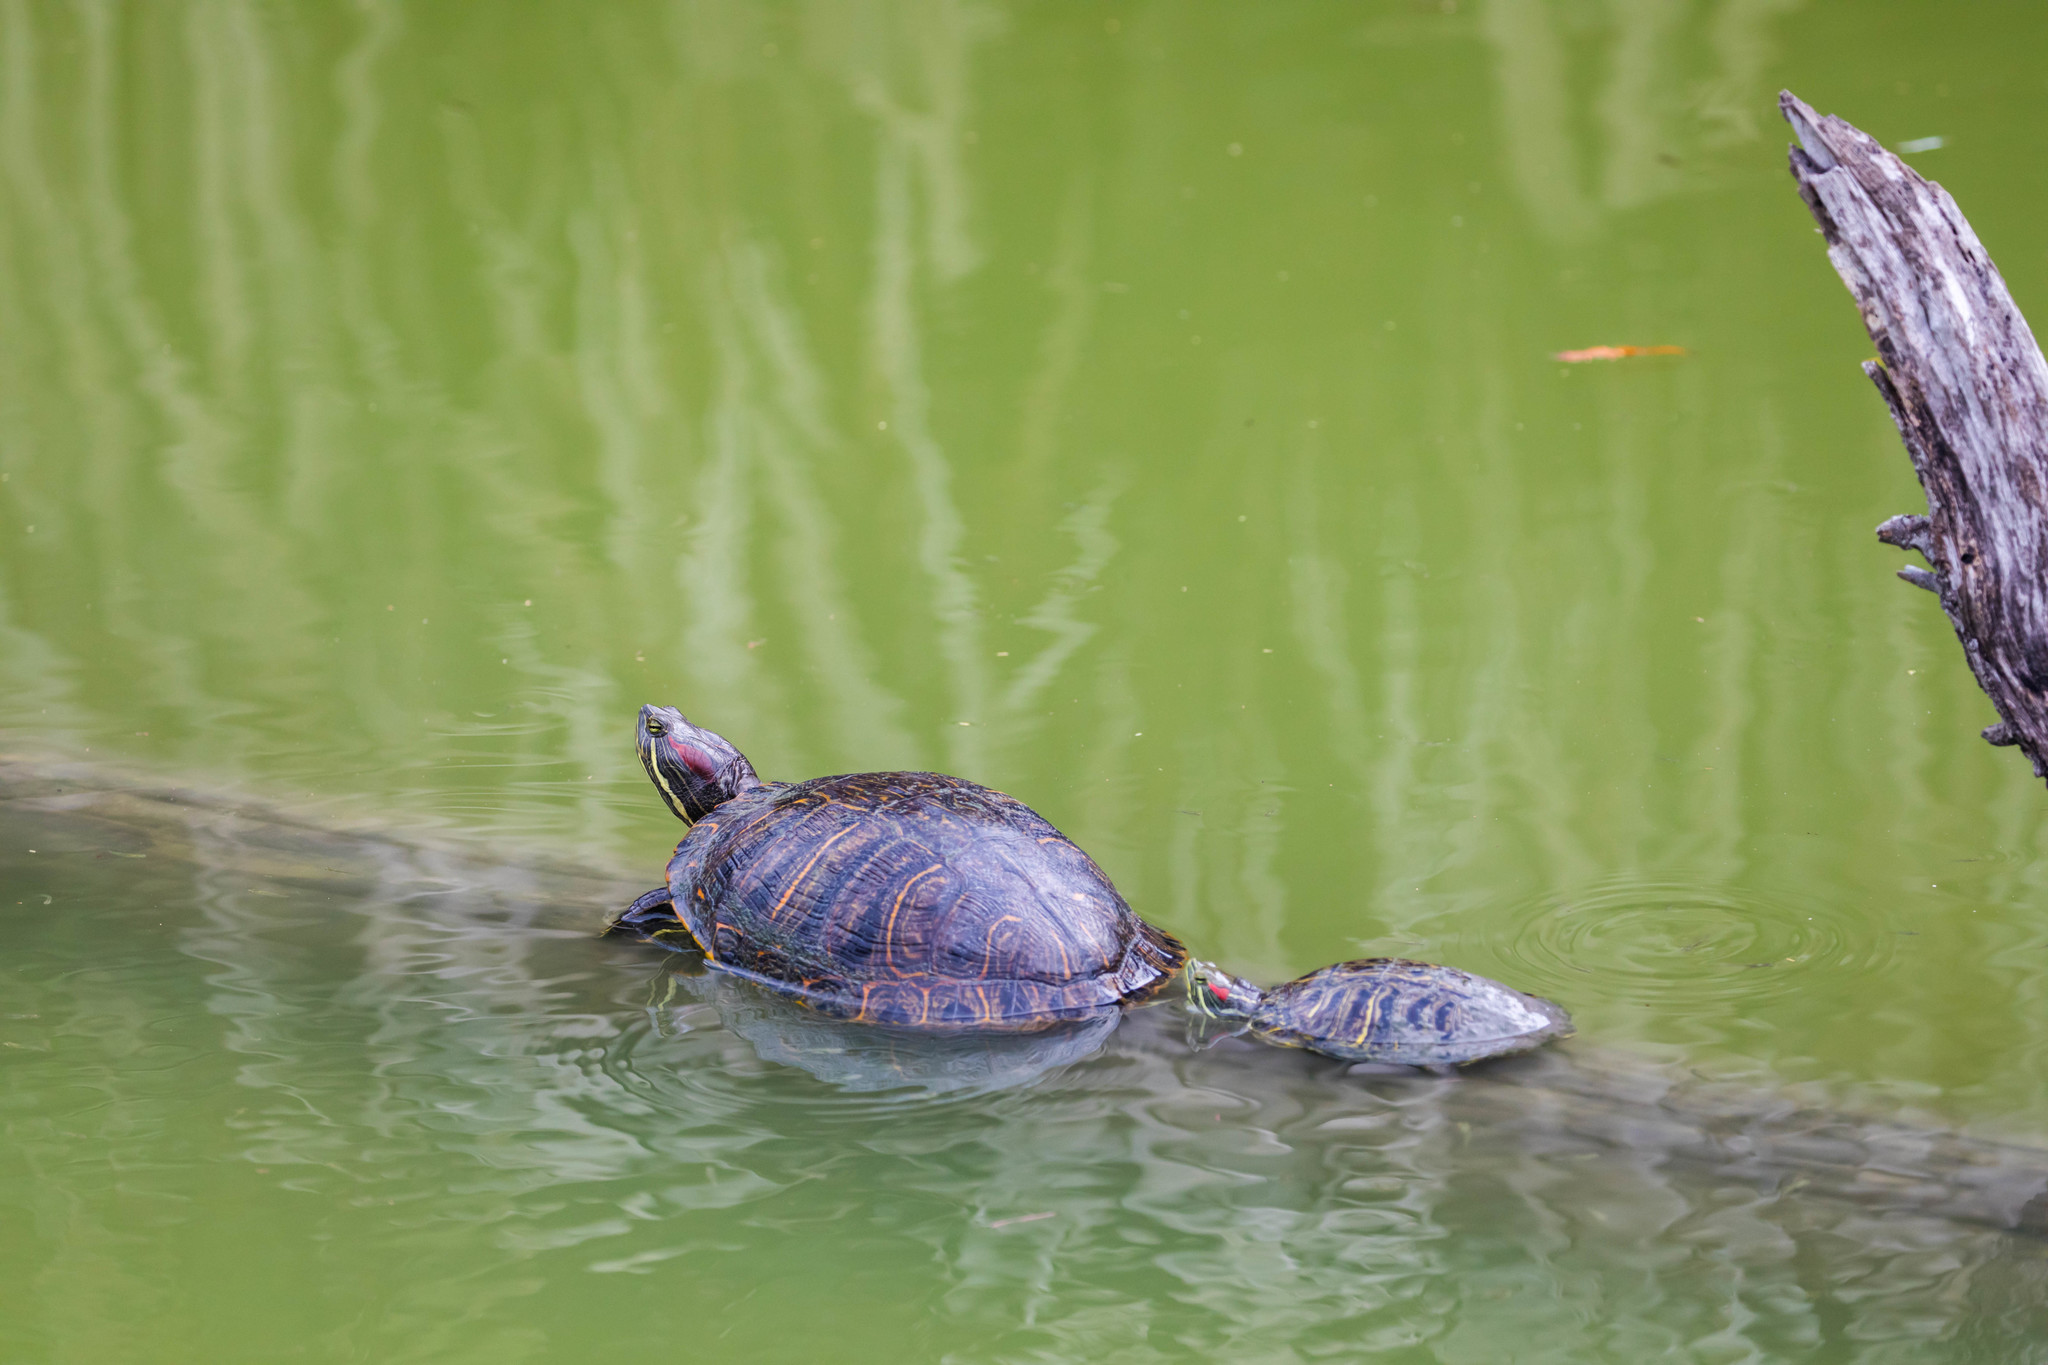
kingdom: Animalia
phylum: Chordata
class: Testudines
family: Emydidae
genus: Trachemys
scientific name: Trachemys scripta
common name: Slider
